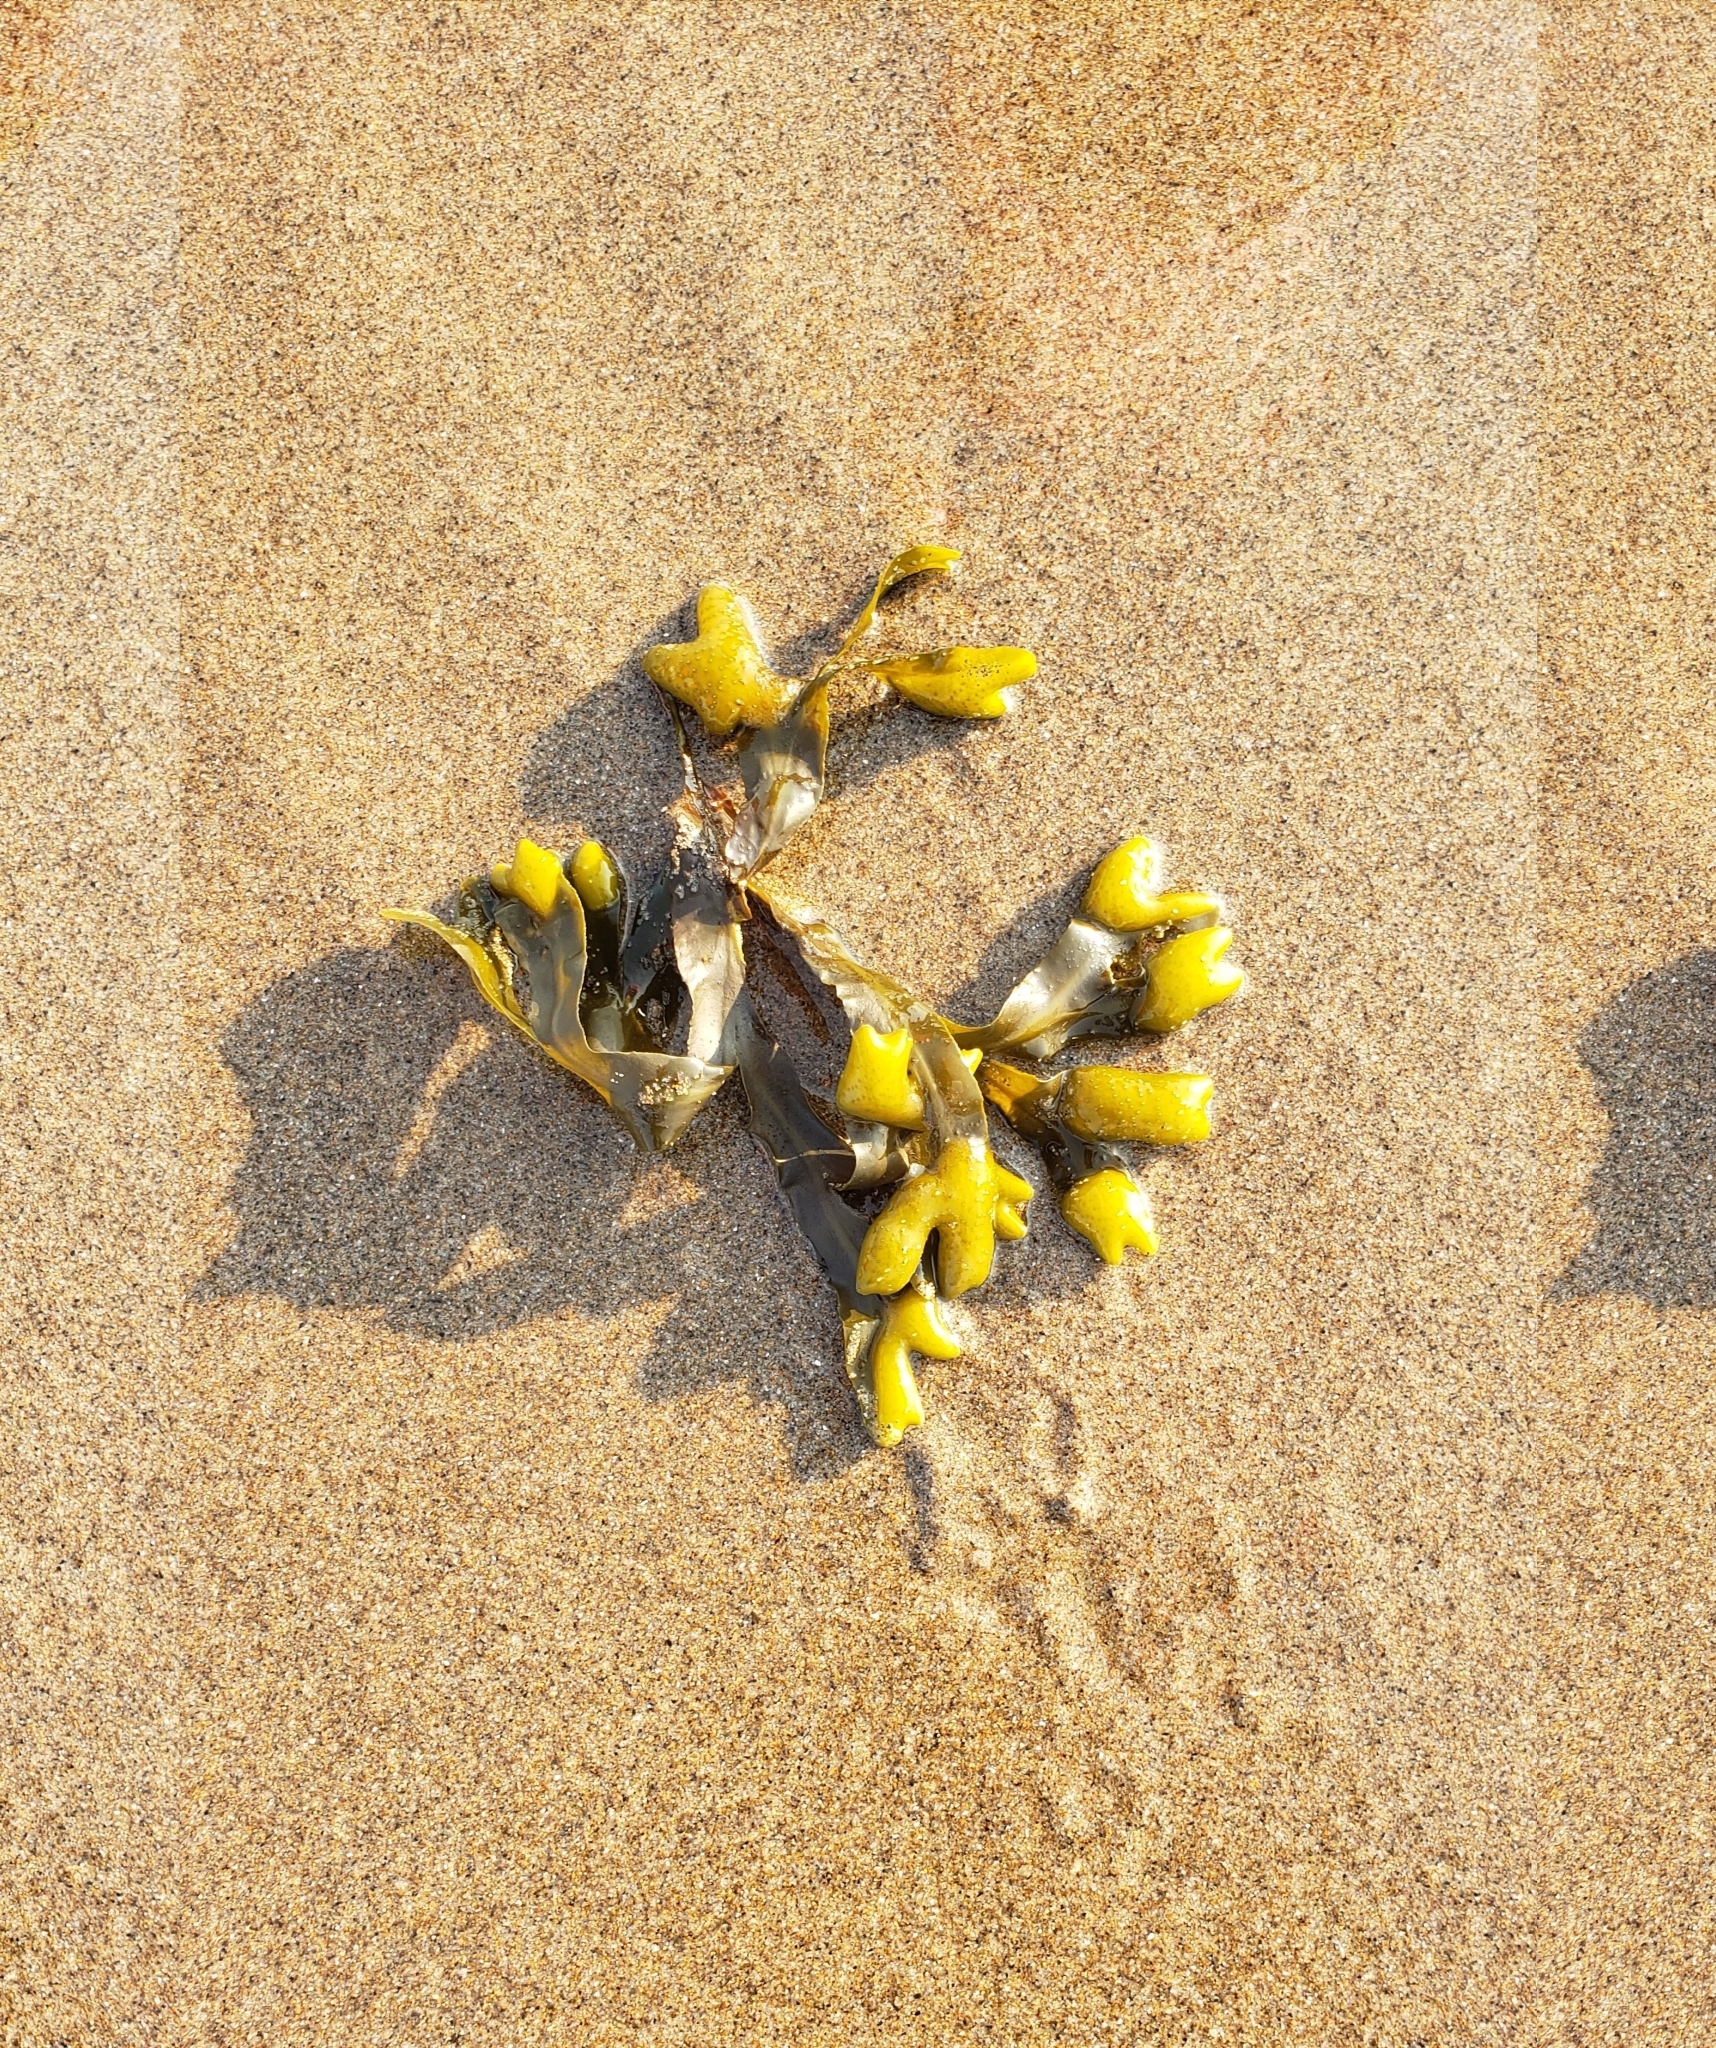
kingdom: Chromista
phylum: Ochrophyta
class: Phaeophyceae
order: Fucales
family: Fucaceae
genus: Fucus
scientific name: Fucus distichus
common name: Rockweed
